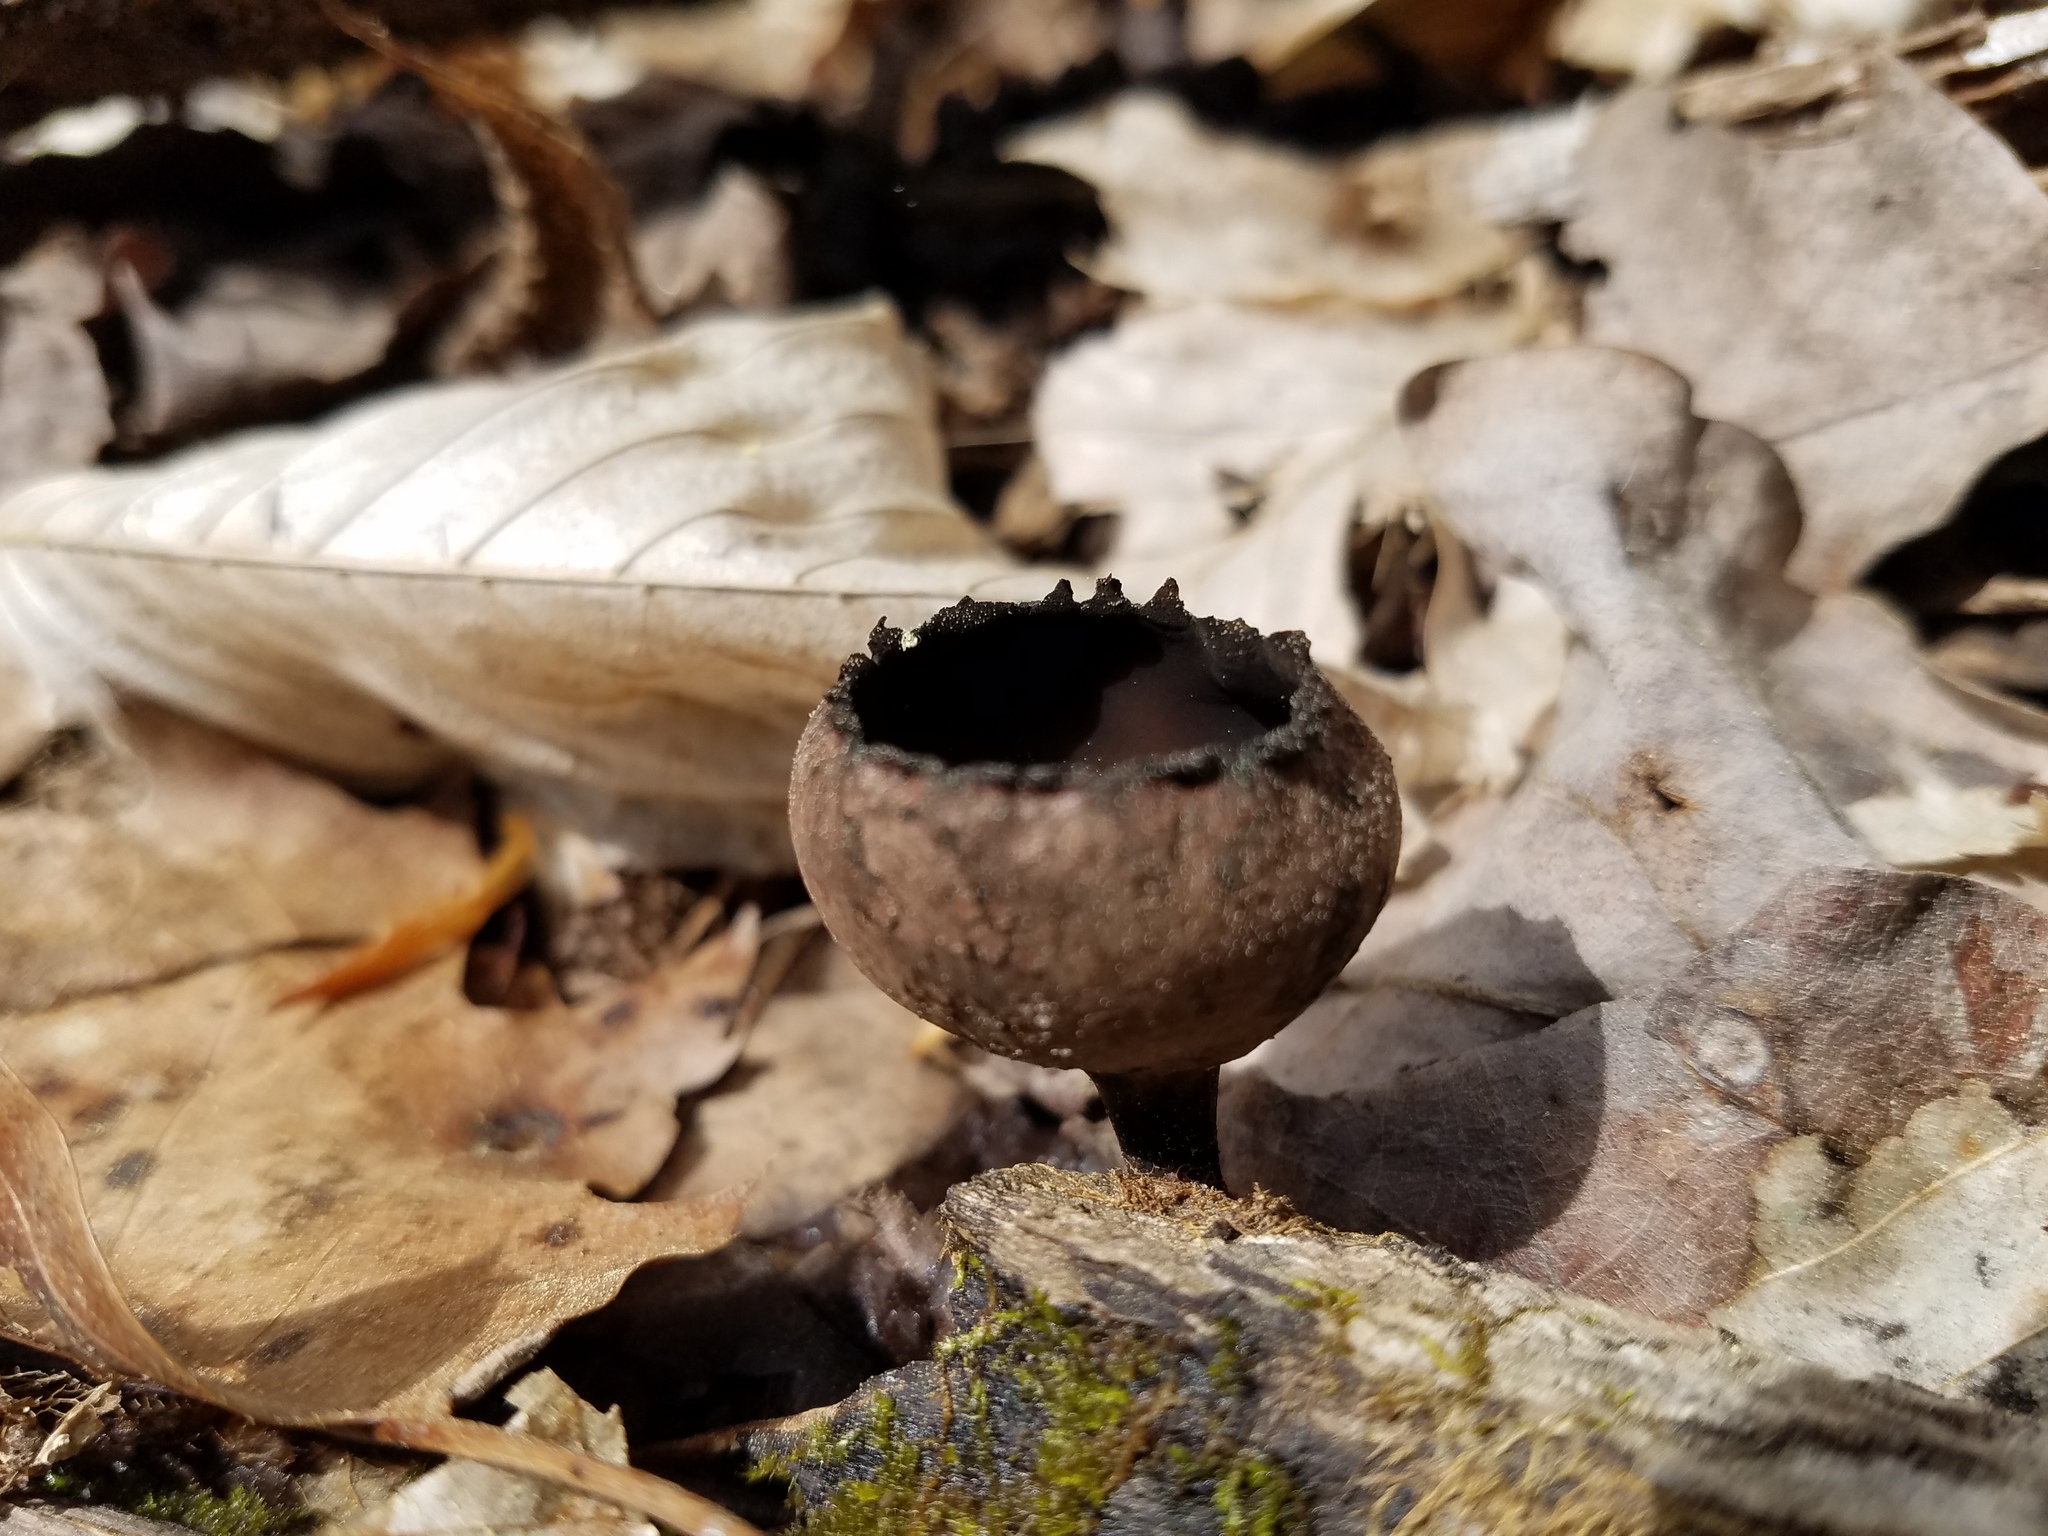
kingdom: Fungi
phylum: Ascomycota
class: Pezizomycetes
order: Pezizales
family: Sarcosomataceae
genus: Urnula
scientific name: Urnula craterium
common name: Devil's urn
